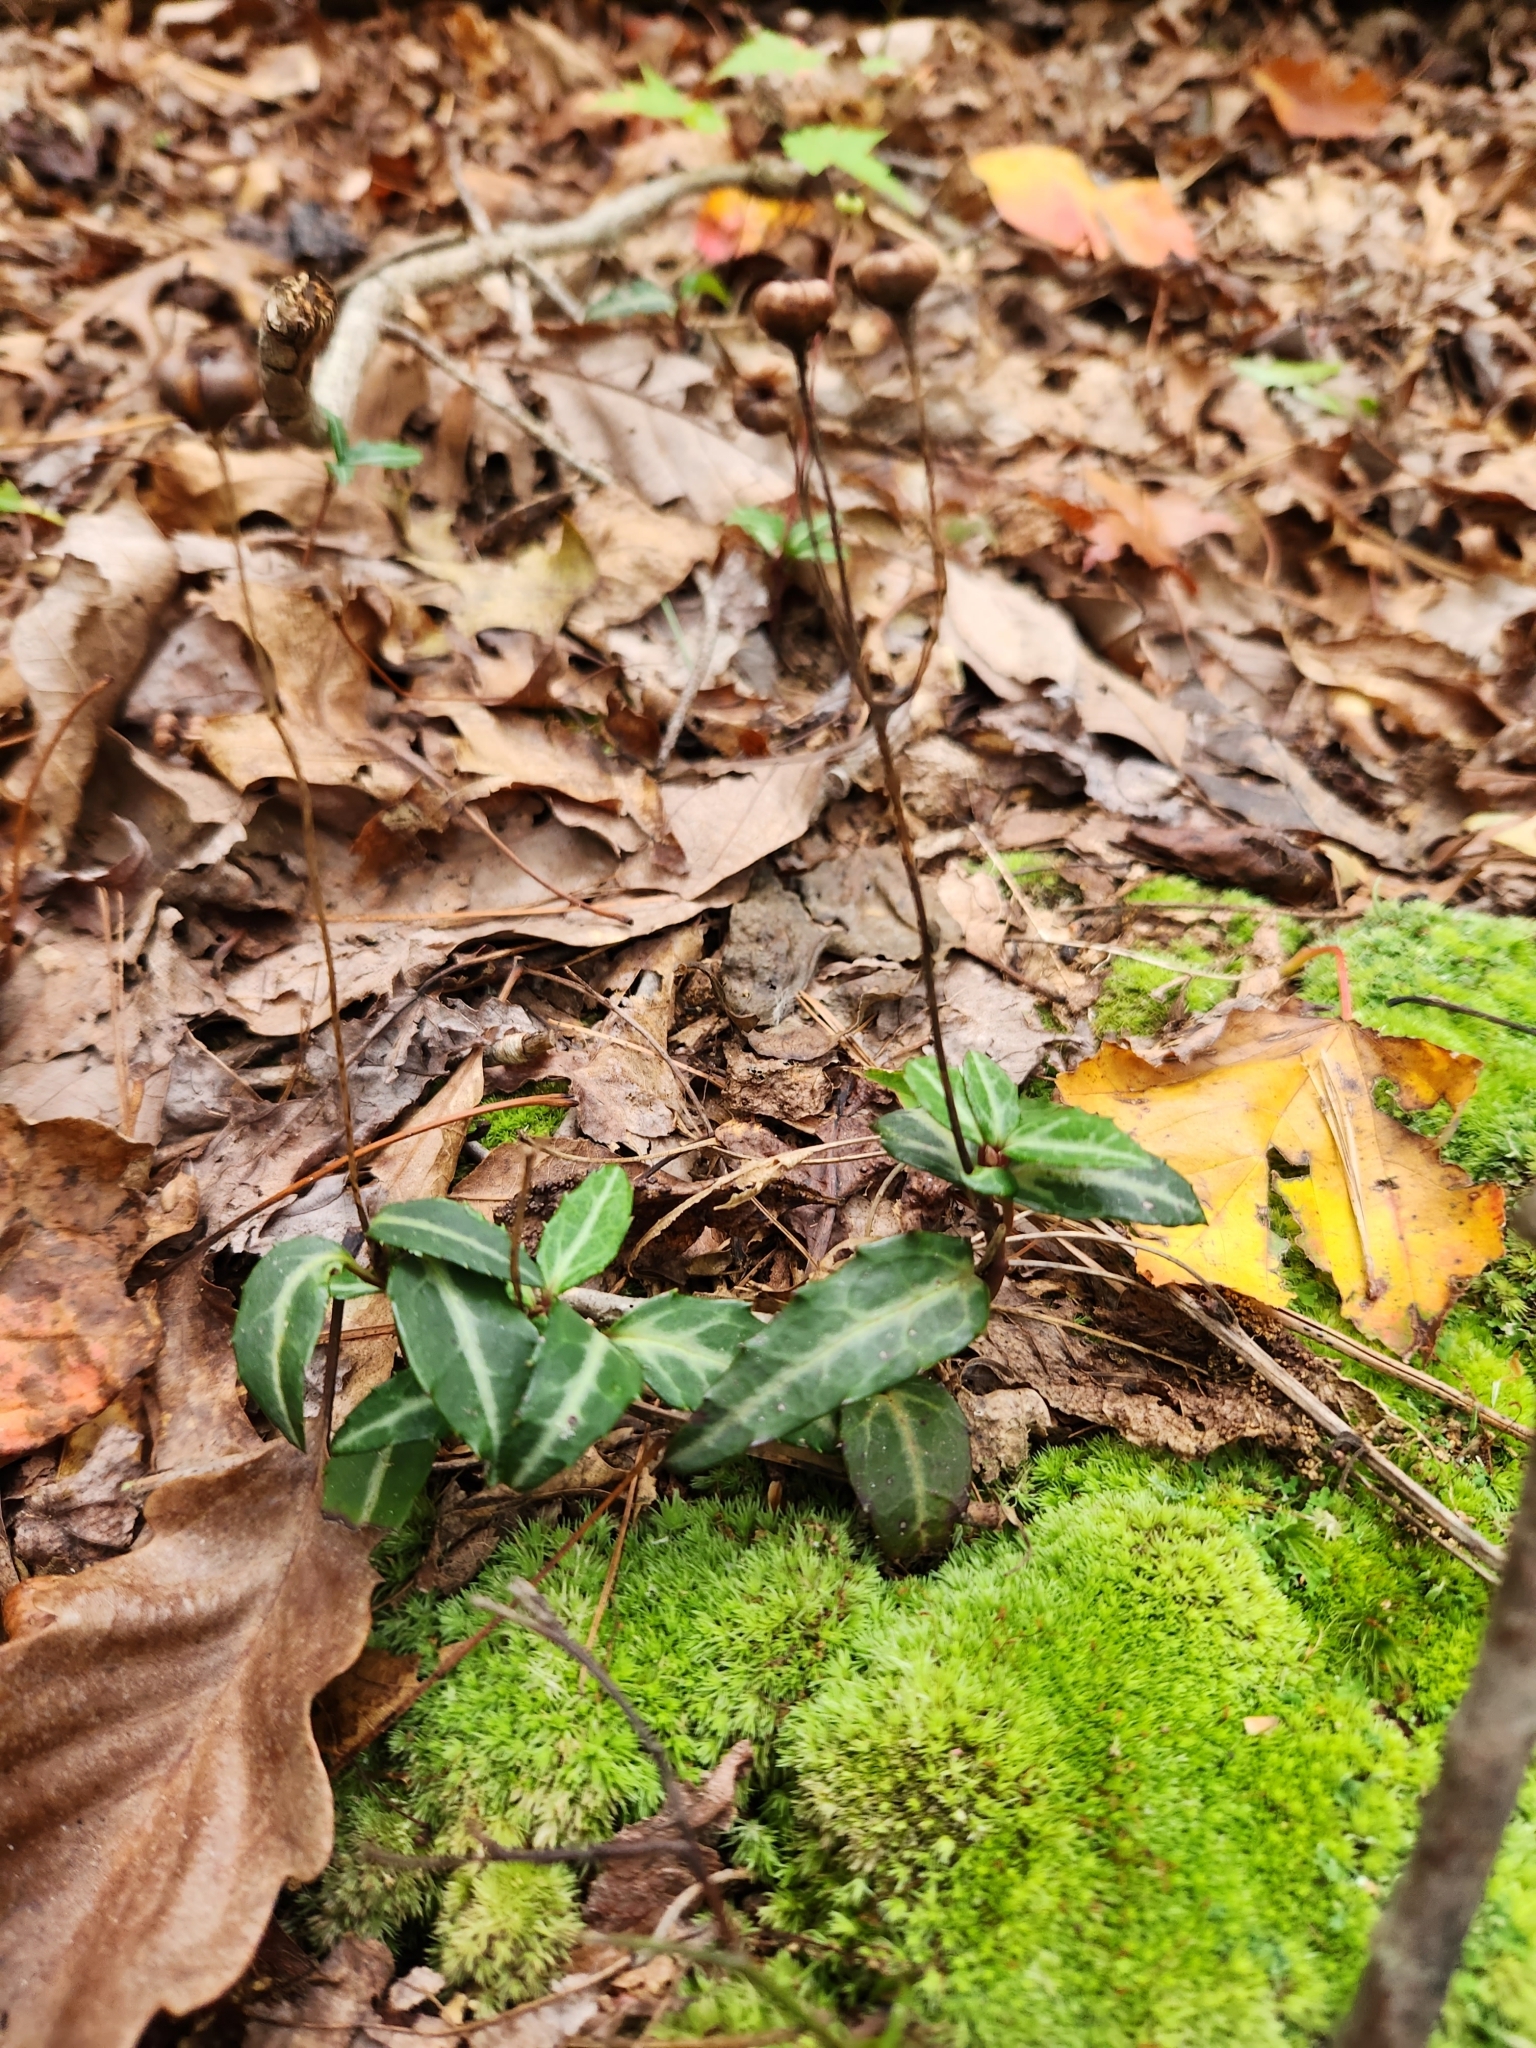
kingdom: Plantae
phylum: Tracheophyta
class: Magnoliopsida
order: Ericales
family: Ericaceae
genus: Chimaphila
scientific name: Chimaphila maculata
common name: Spotted pipsissewa
